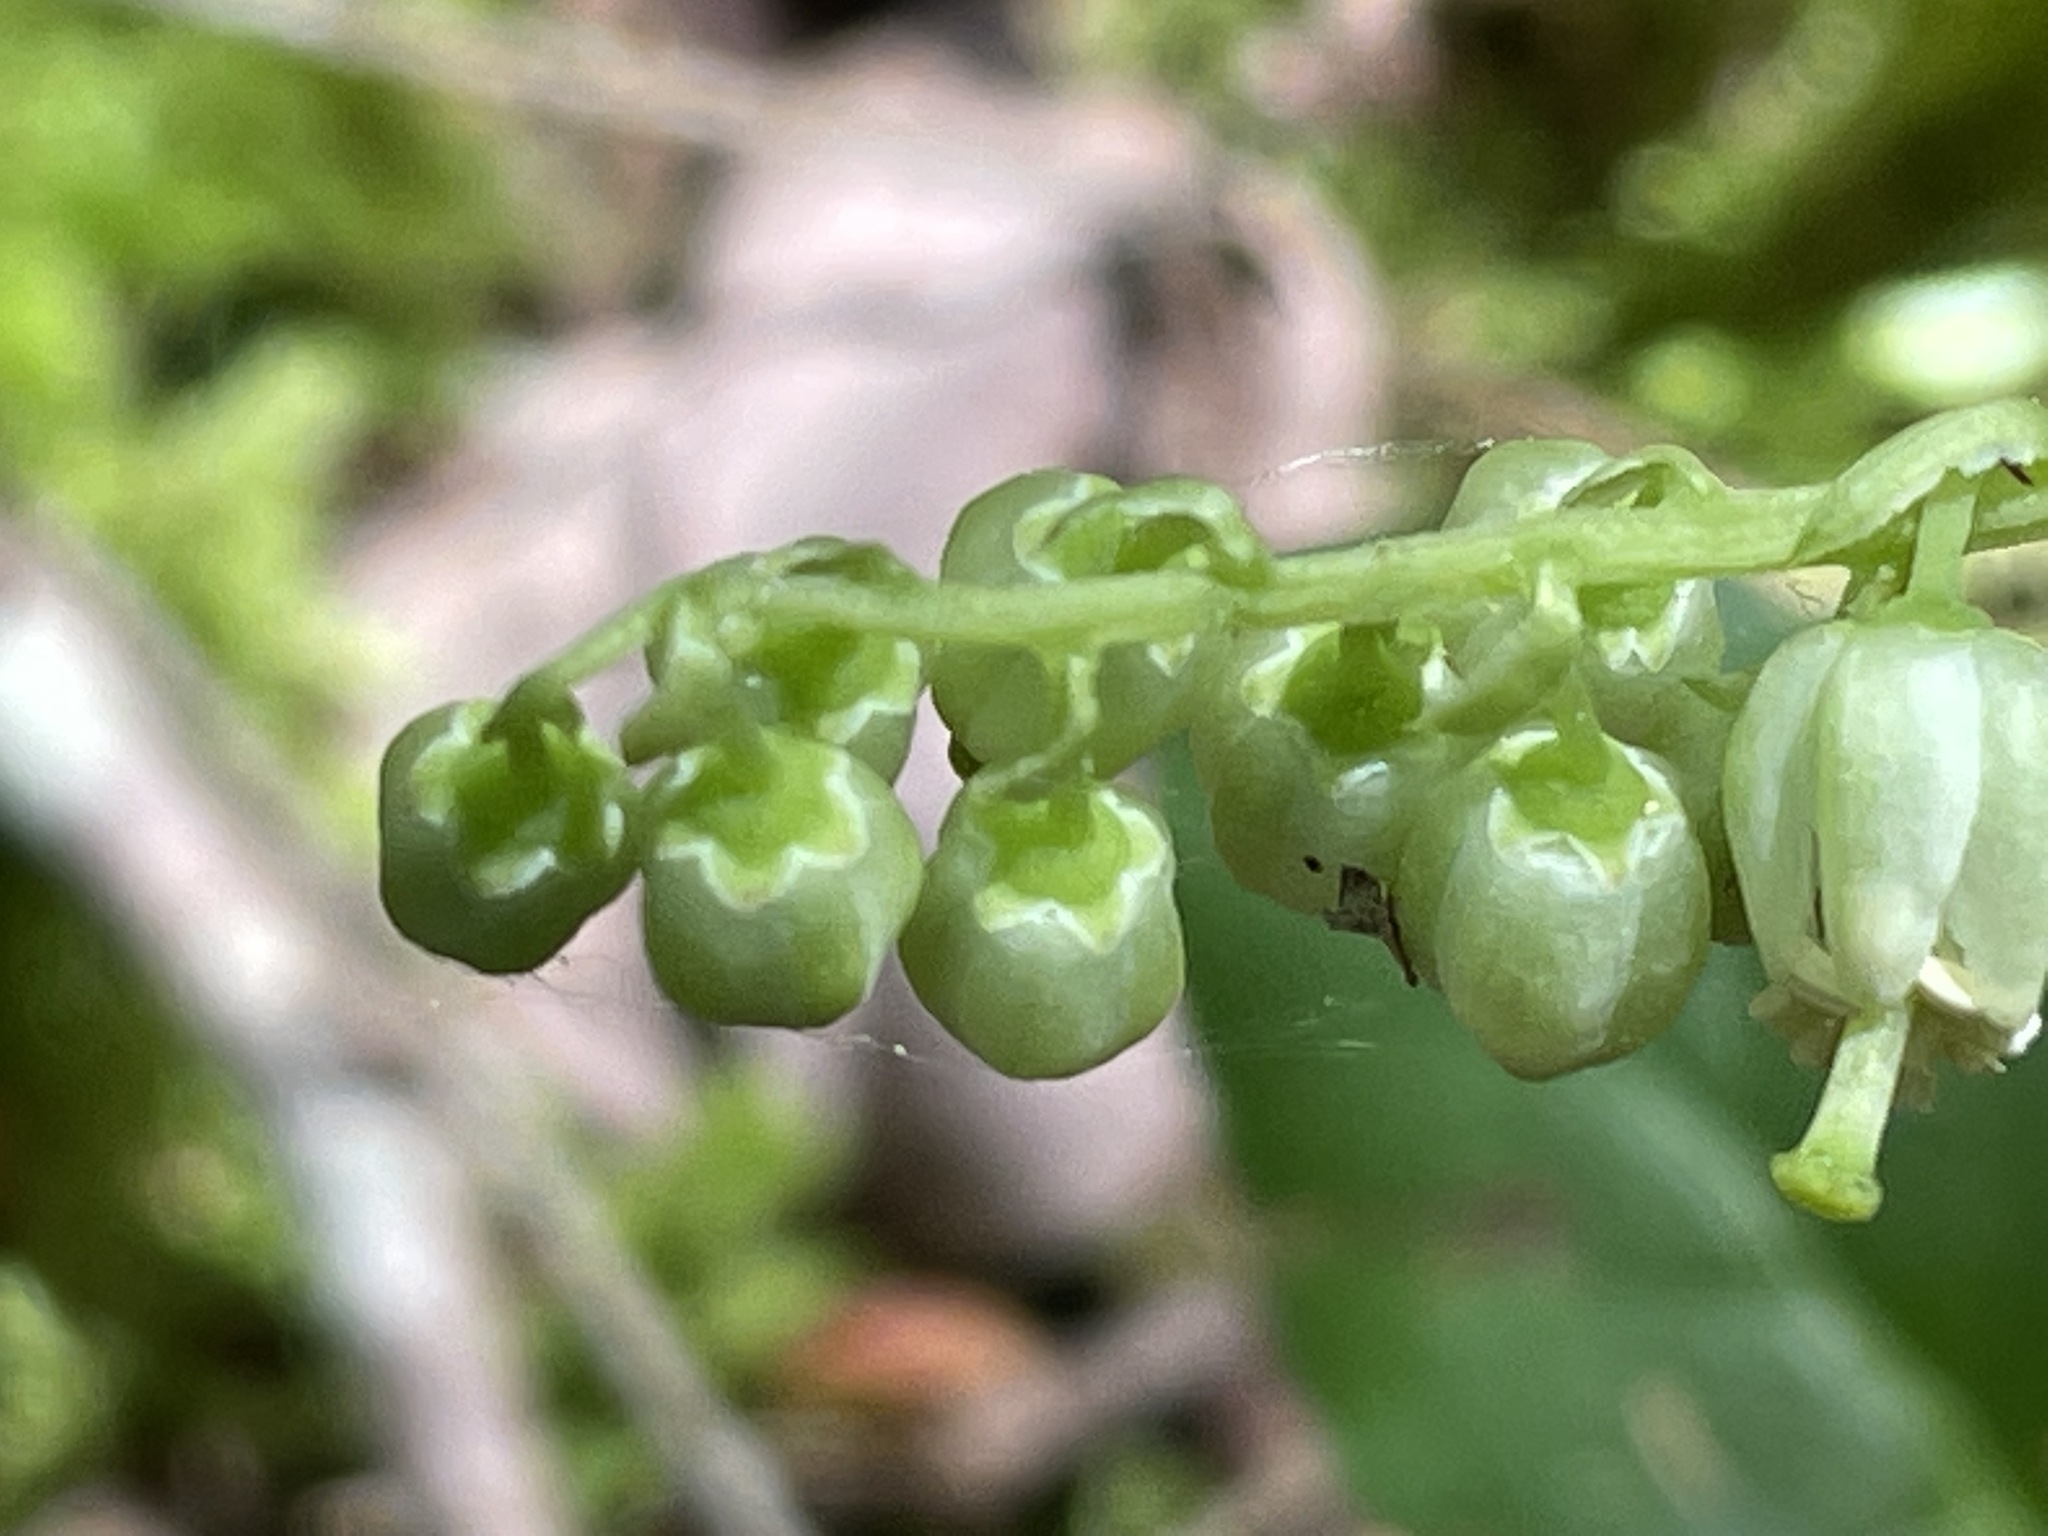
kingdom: Plantae
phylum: Tracheophyta
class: Magnoliopsida
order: Ericales
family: Ericaceae
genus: Orthilia
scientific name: Orthilia secunda
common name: One-sided orthilia
